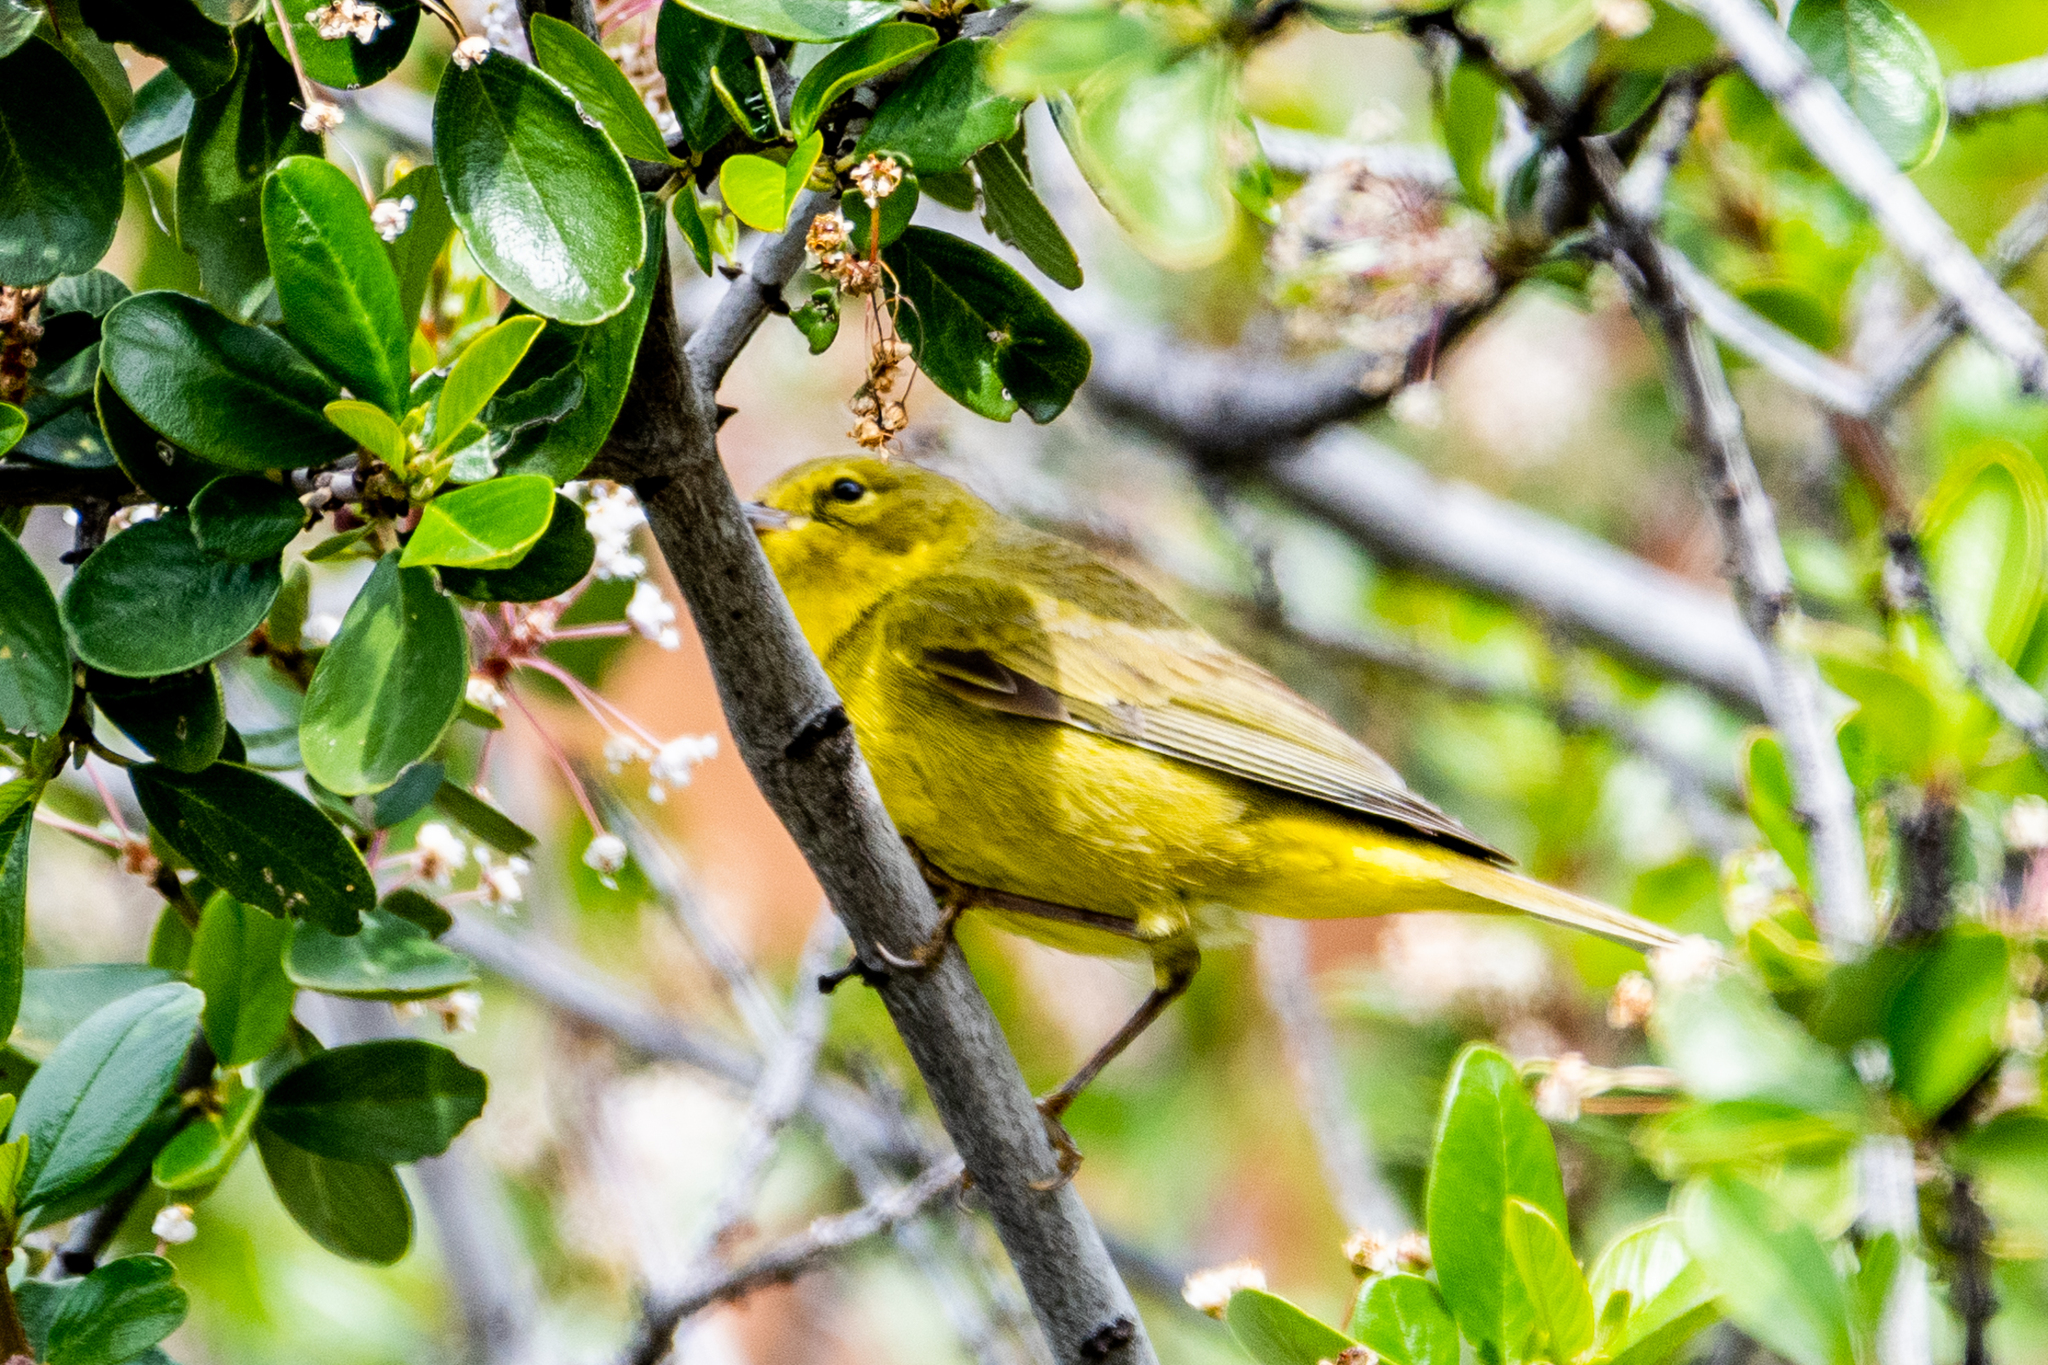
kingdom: Animalia
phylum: Chordata
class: Aves
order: Passeriformes
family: Parulidae
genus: Setophaga
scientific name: Setophaga petechia
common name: Yellow warbler
